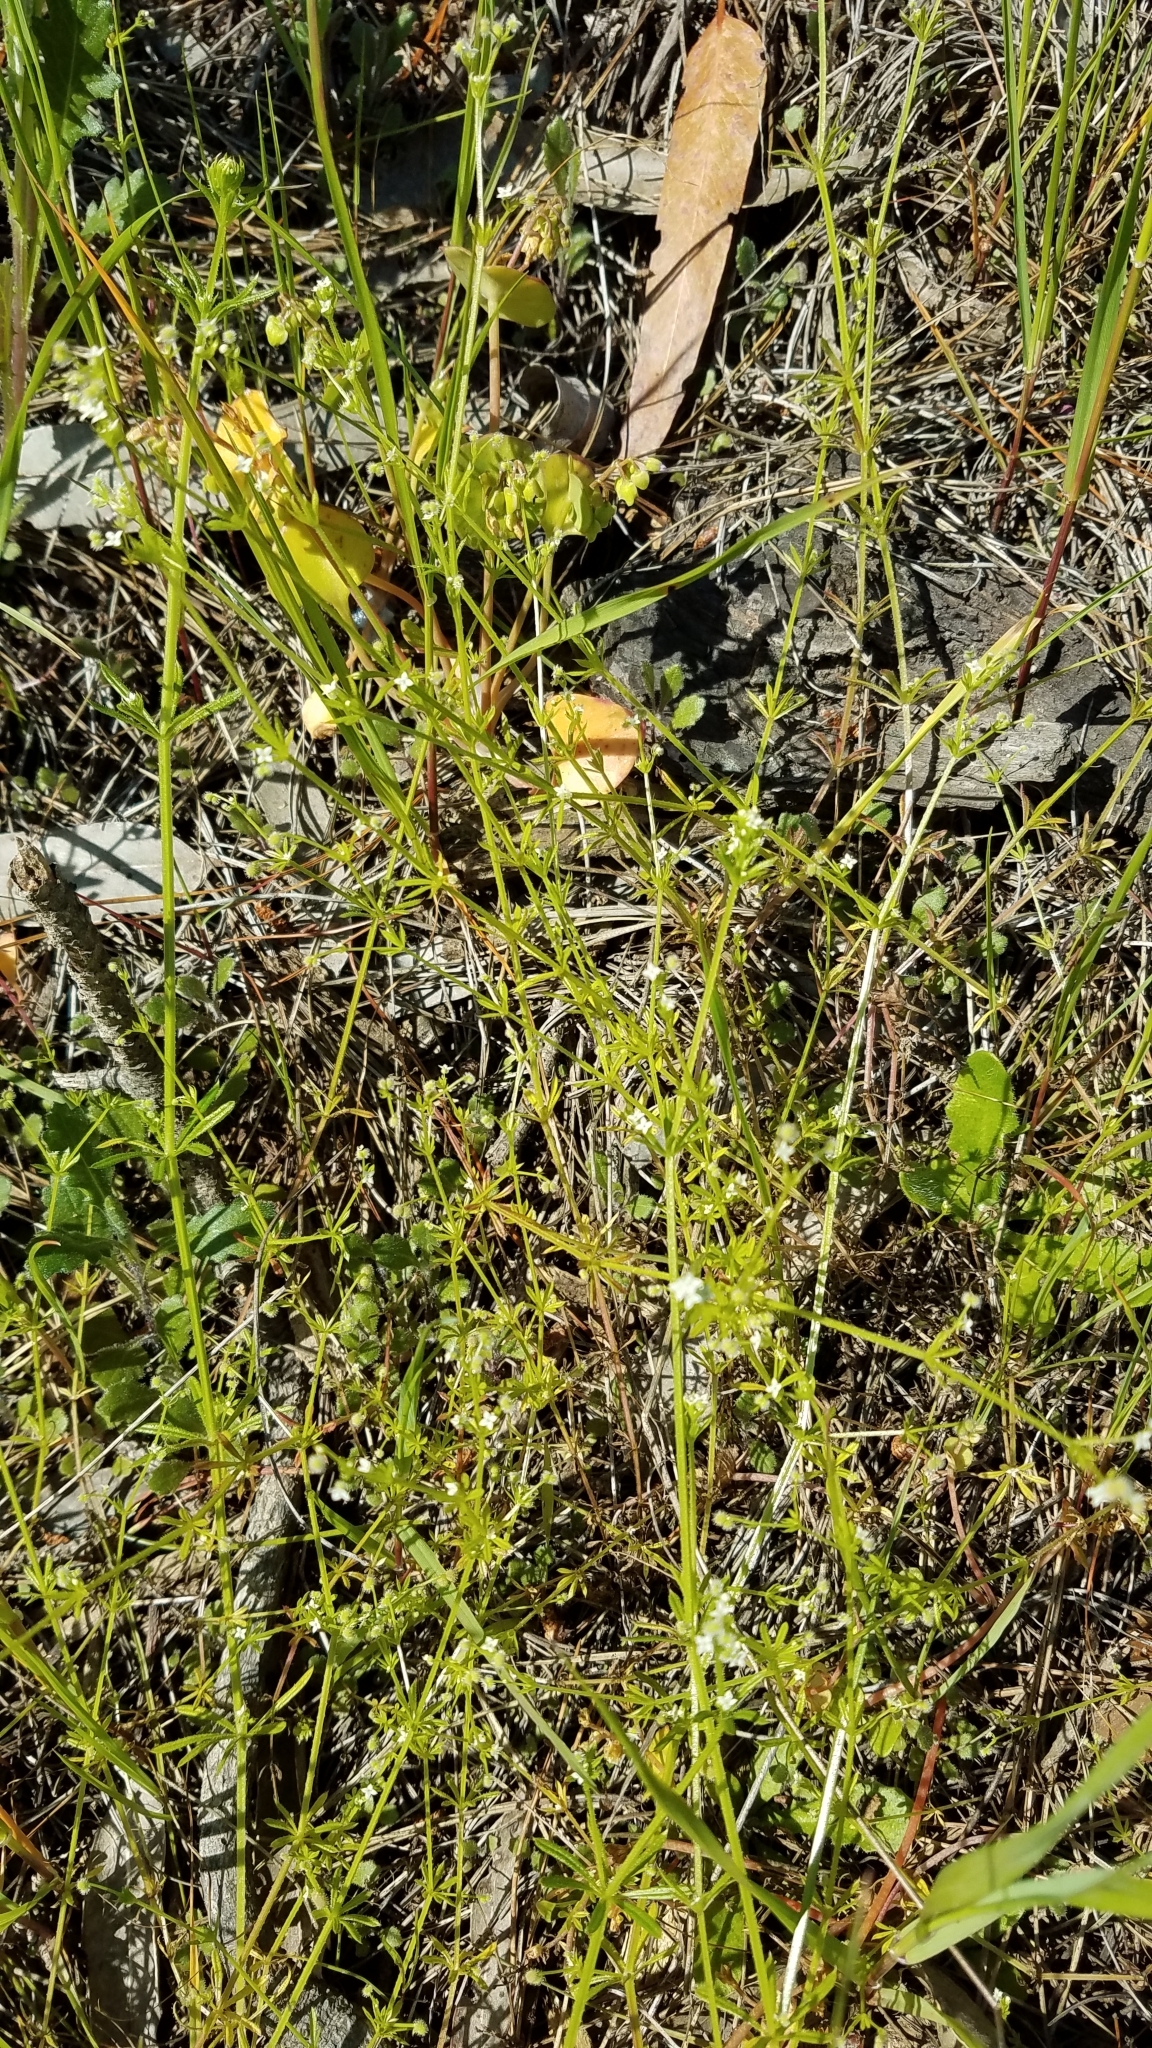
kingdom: Plantae
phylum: Tracheophyta
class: Magnoliopsida
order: Gentianales
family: Rubiaceae
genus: Galium
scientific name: Galium aparine
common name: Cleavers
